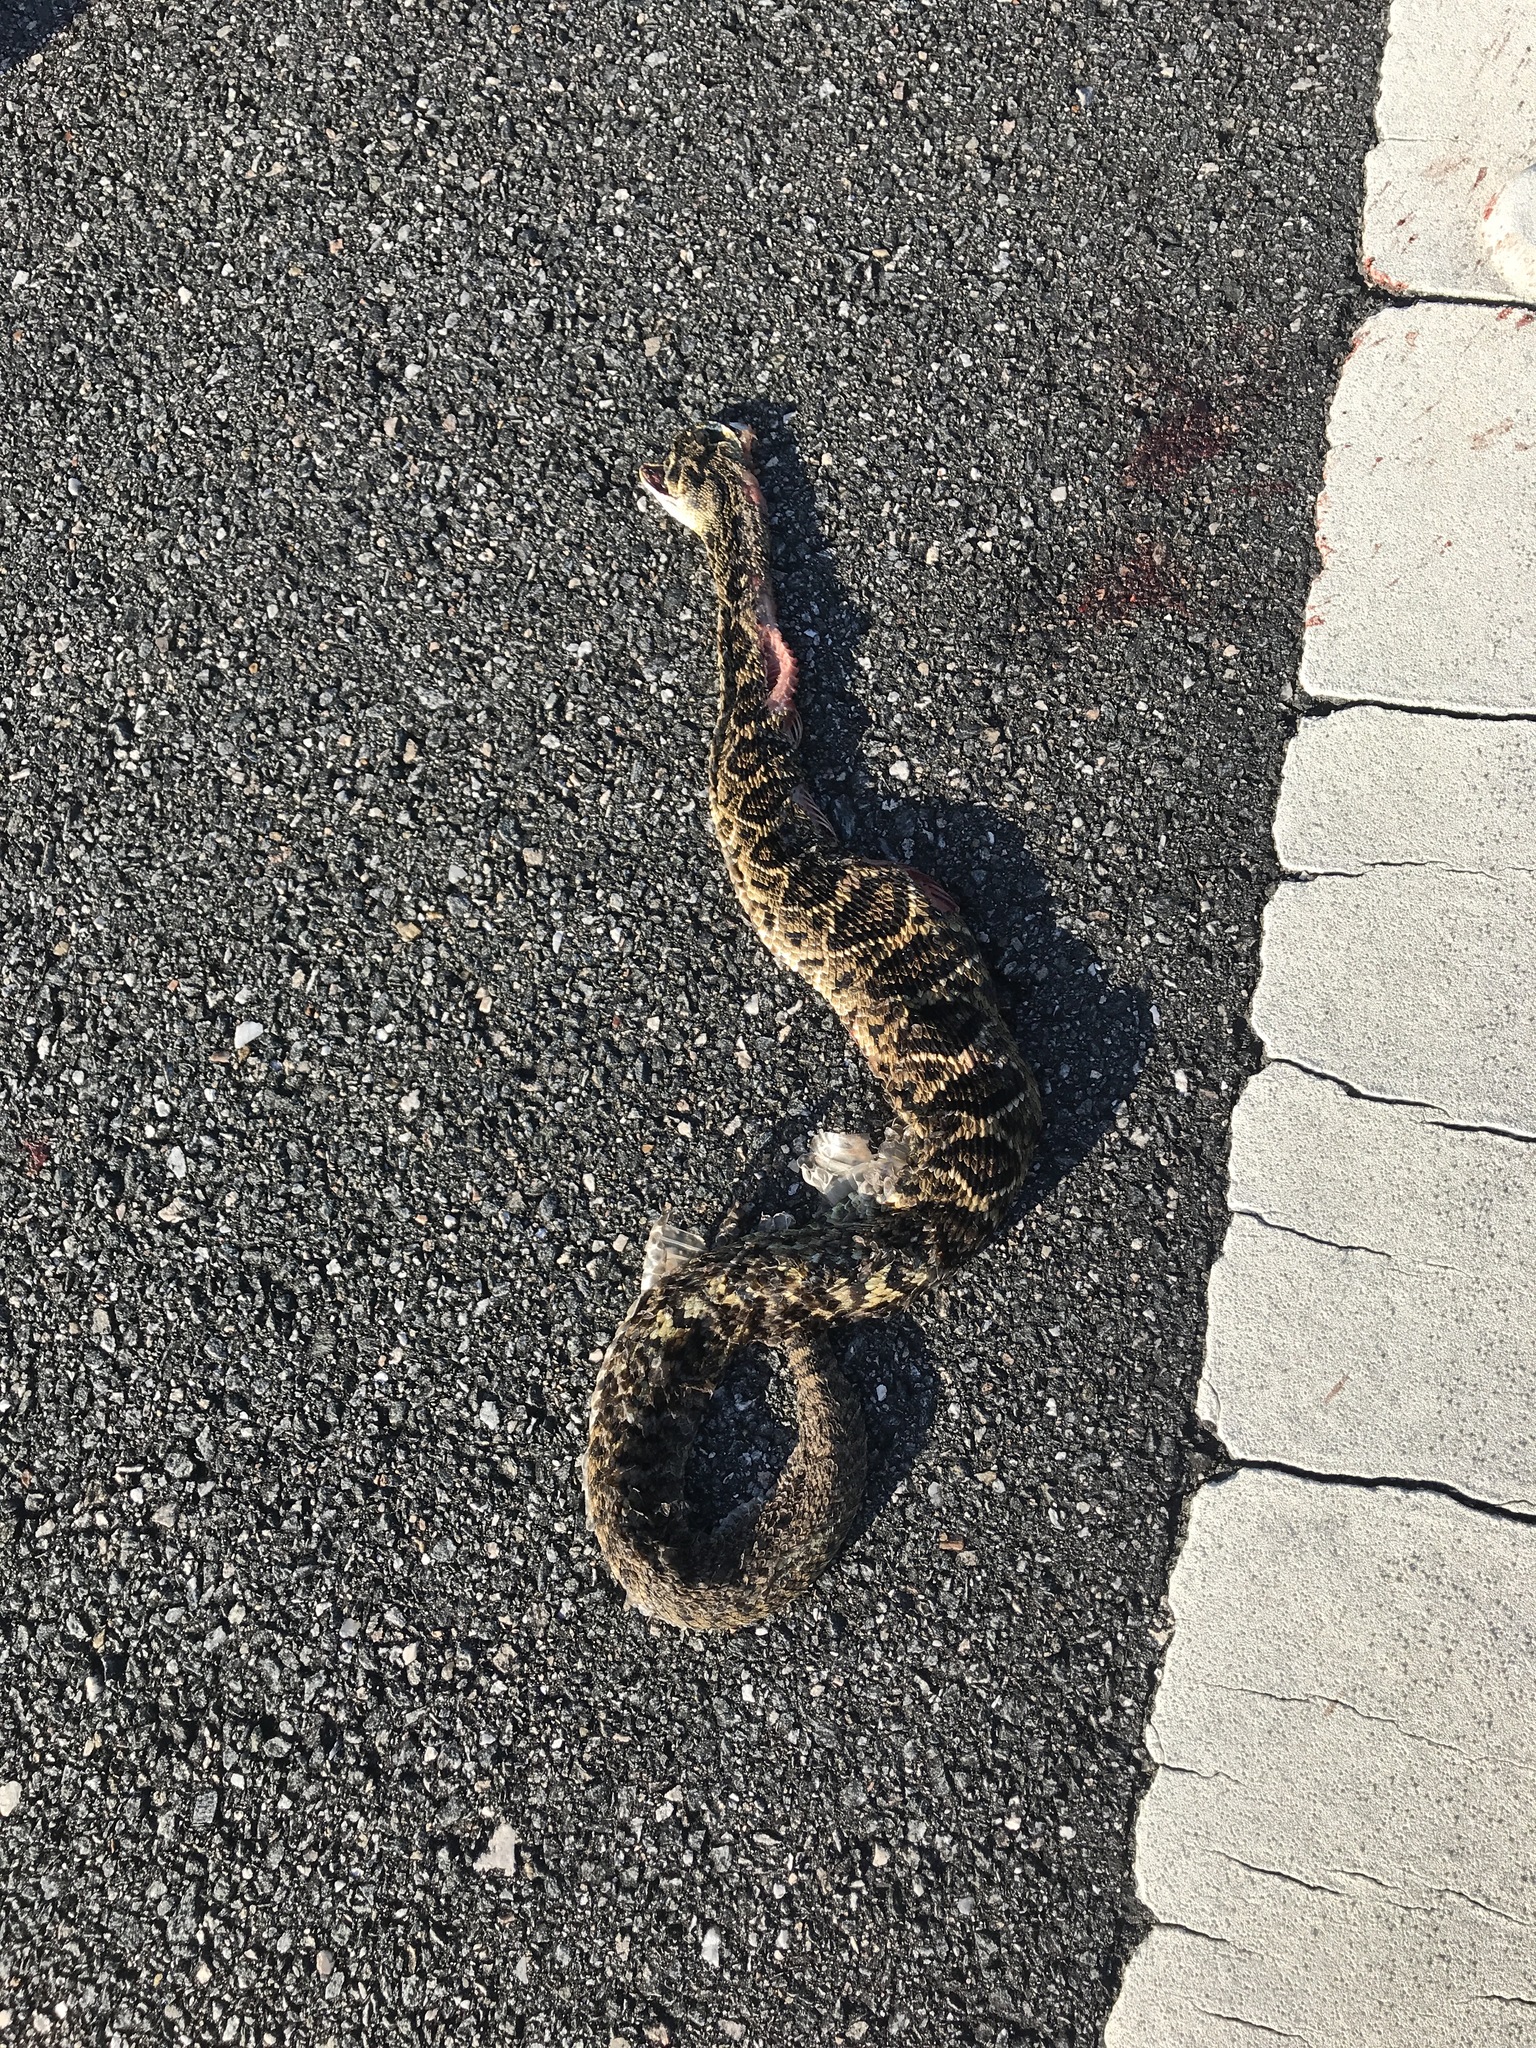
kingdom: Animalia
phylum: Chordata
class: Squamata
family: Viperidae
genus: Crotalus
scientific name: Crotalus adamanteus
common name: Eastern diamondback rattlesnake
